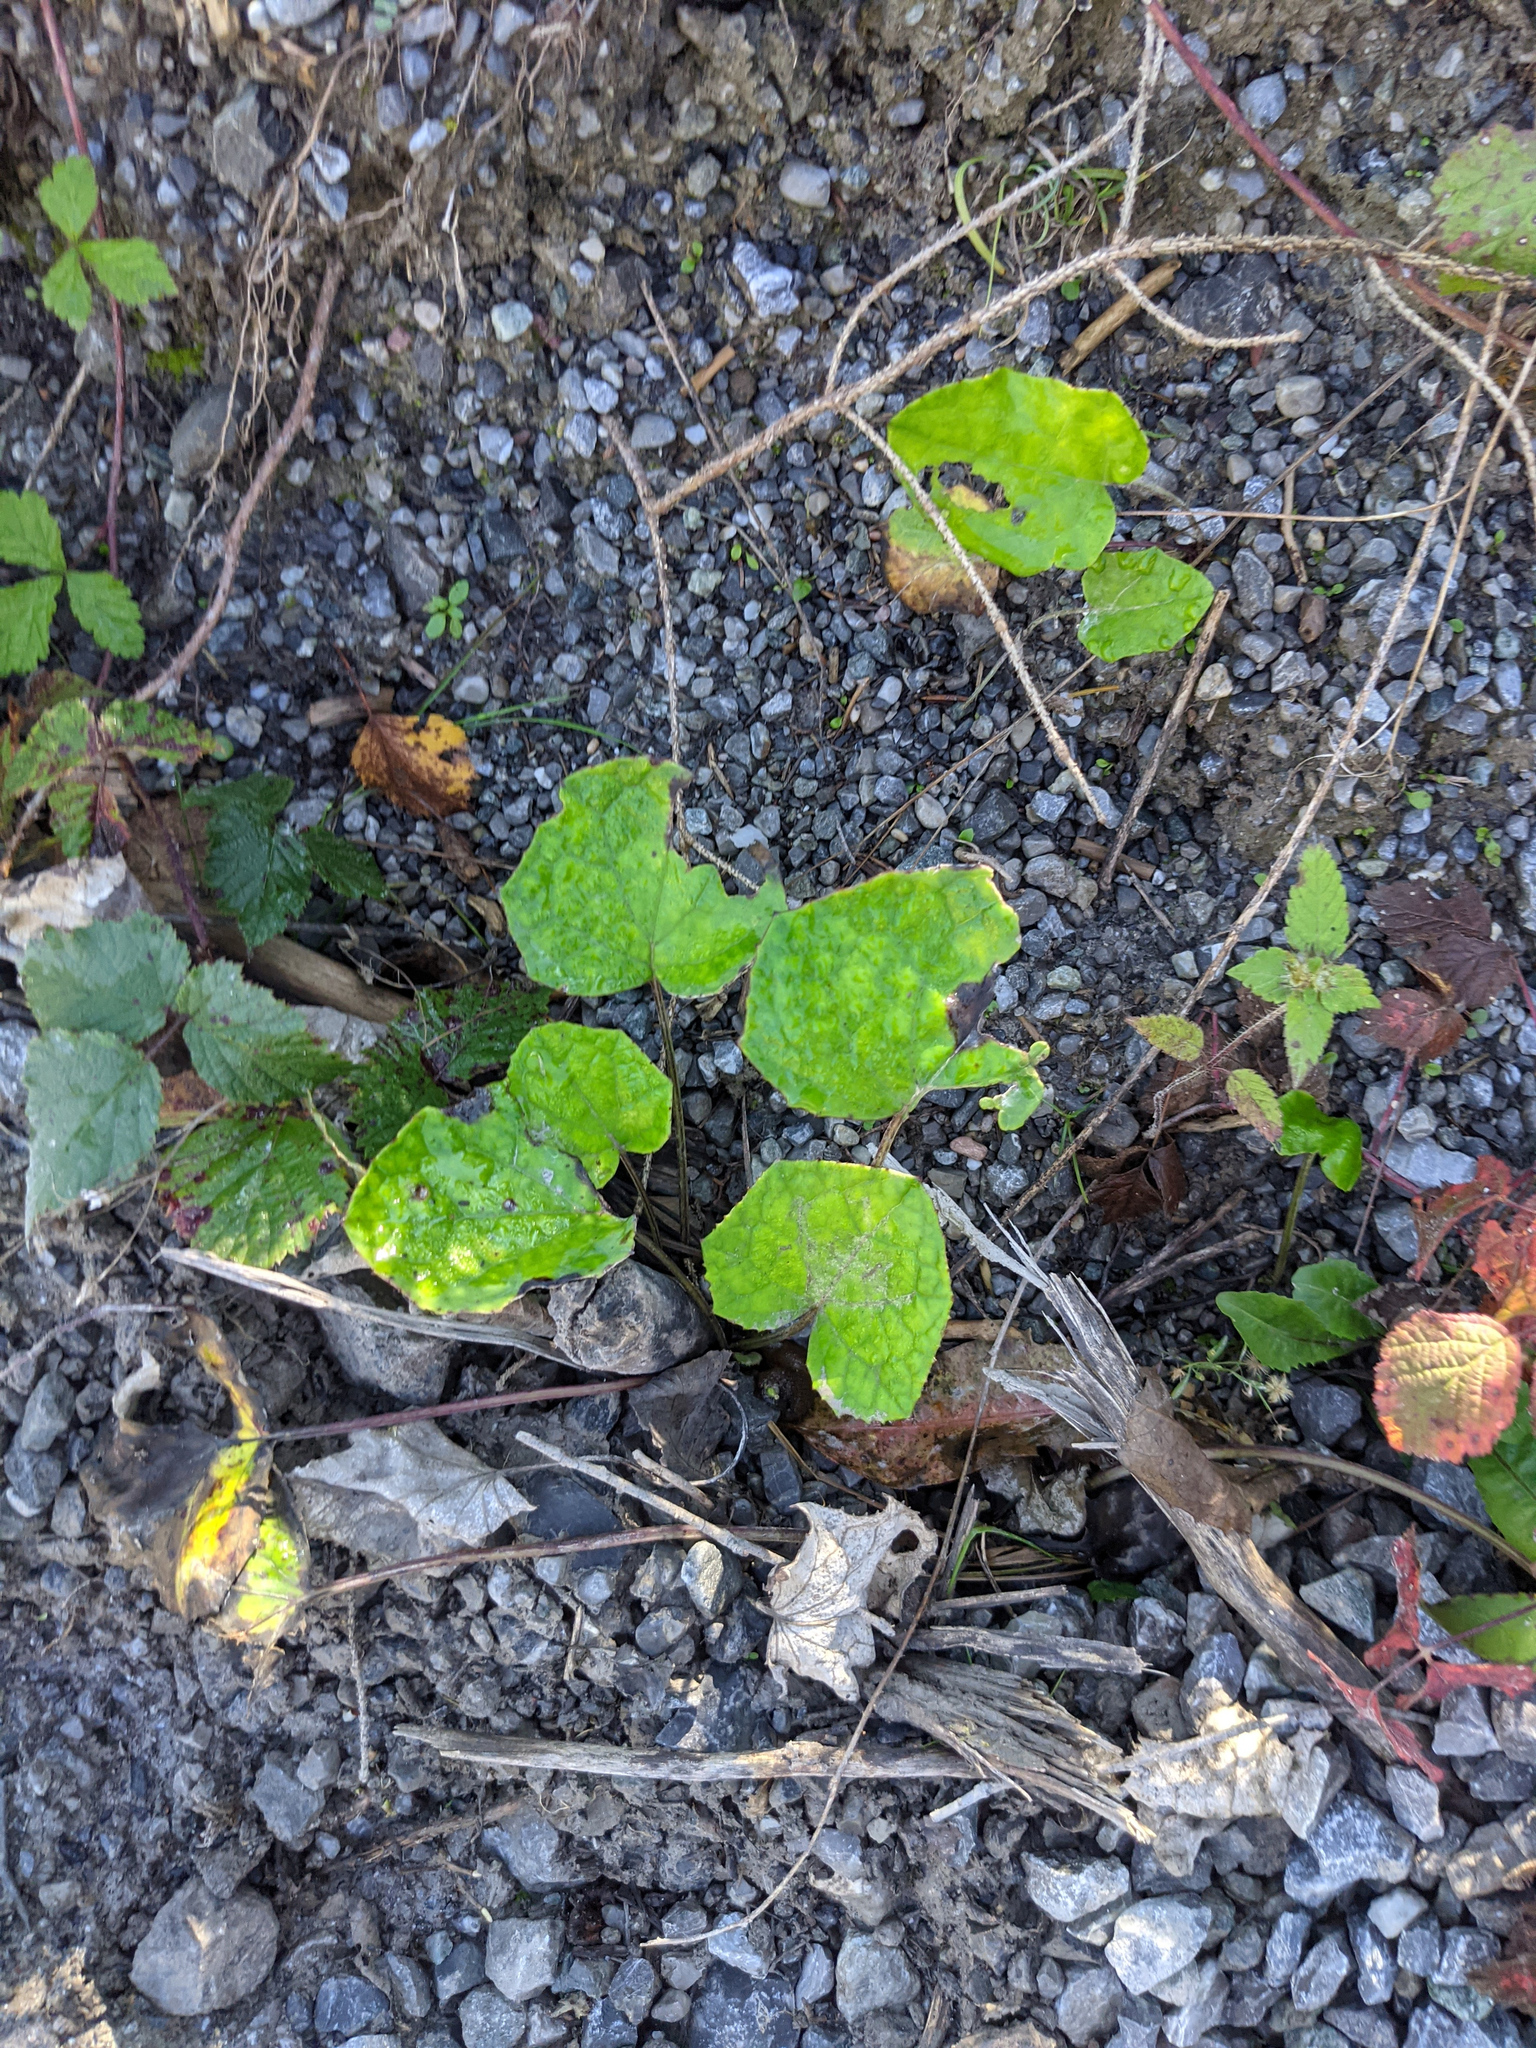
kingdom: Plantae
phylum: Tracheophyta
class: Magnoliopsida
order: Asterales
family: Asteraceae
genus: Tussilago
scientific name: Tussilago farfara
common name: Coltsfoot
